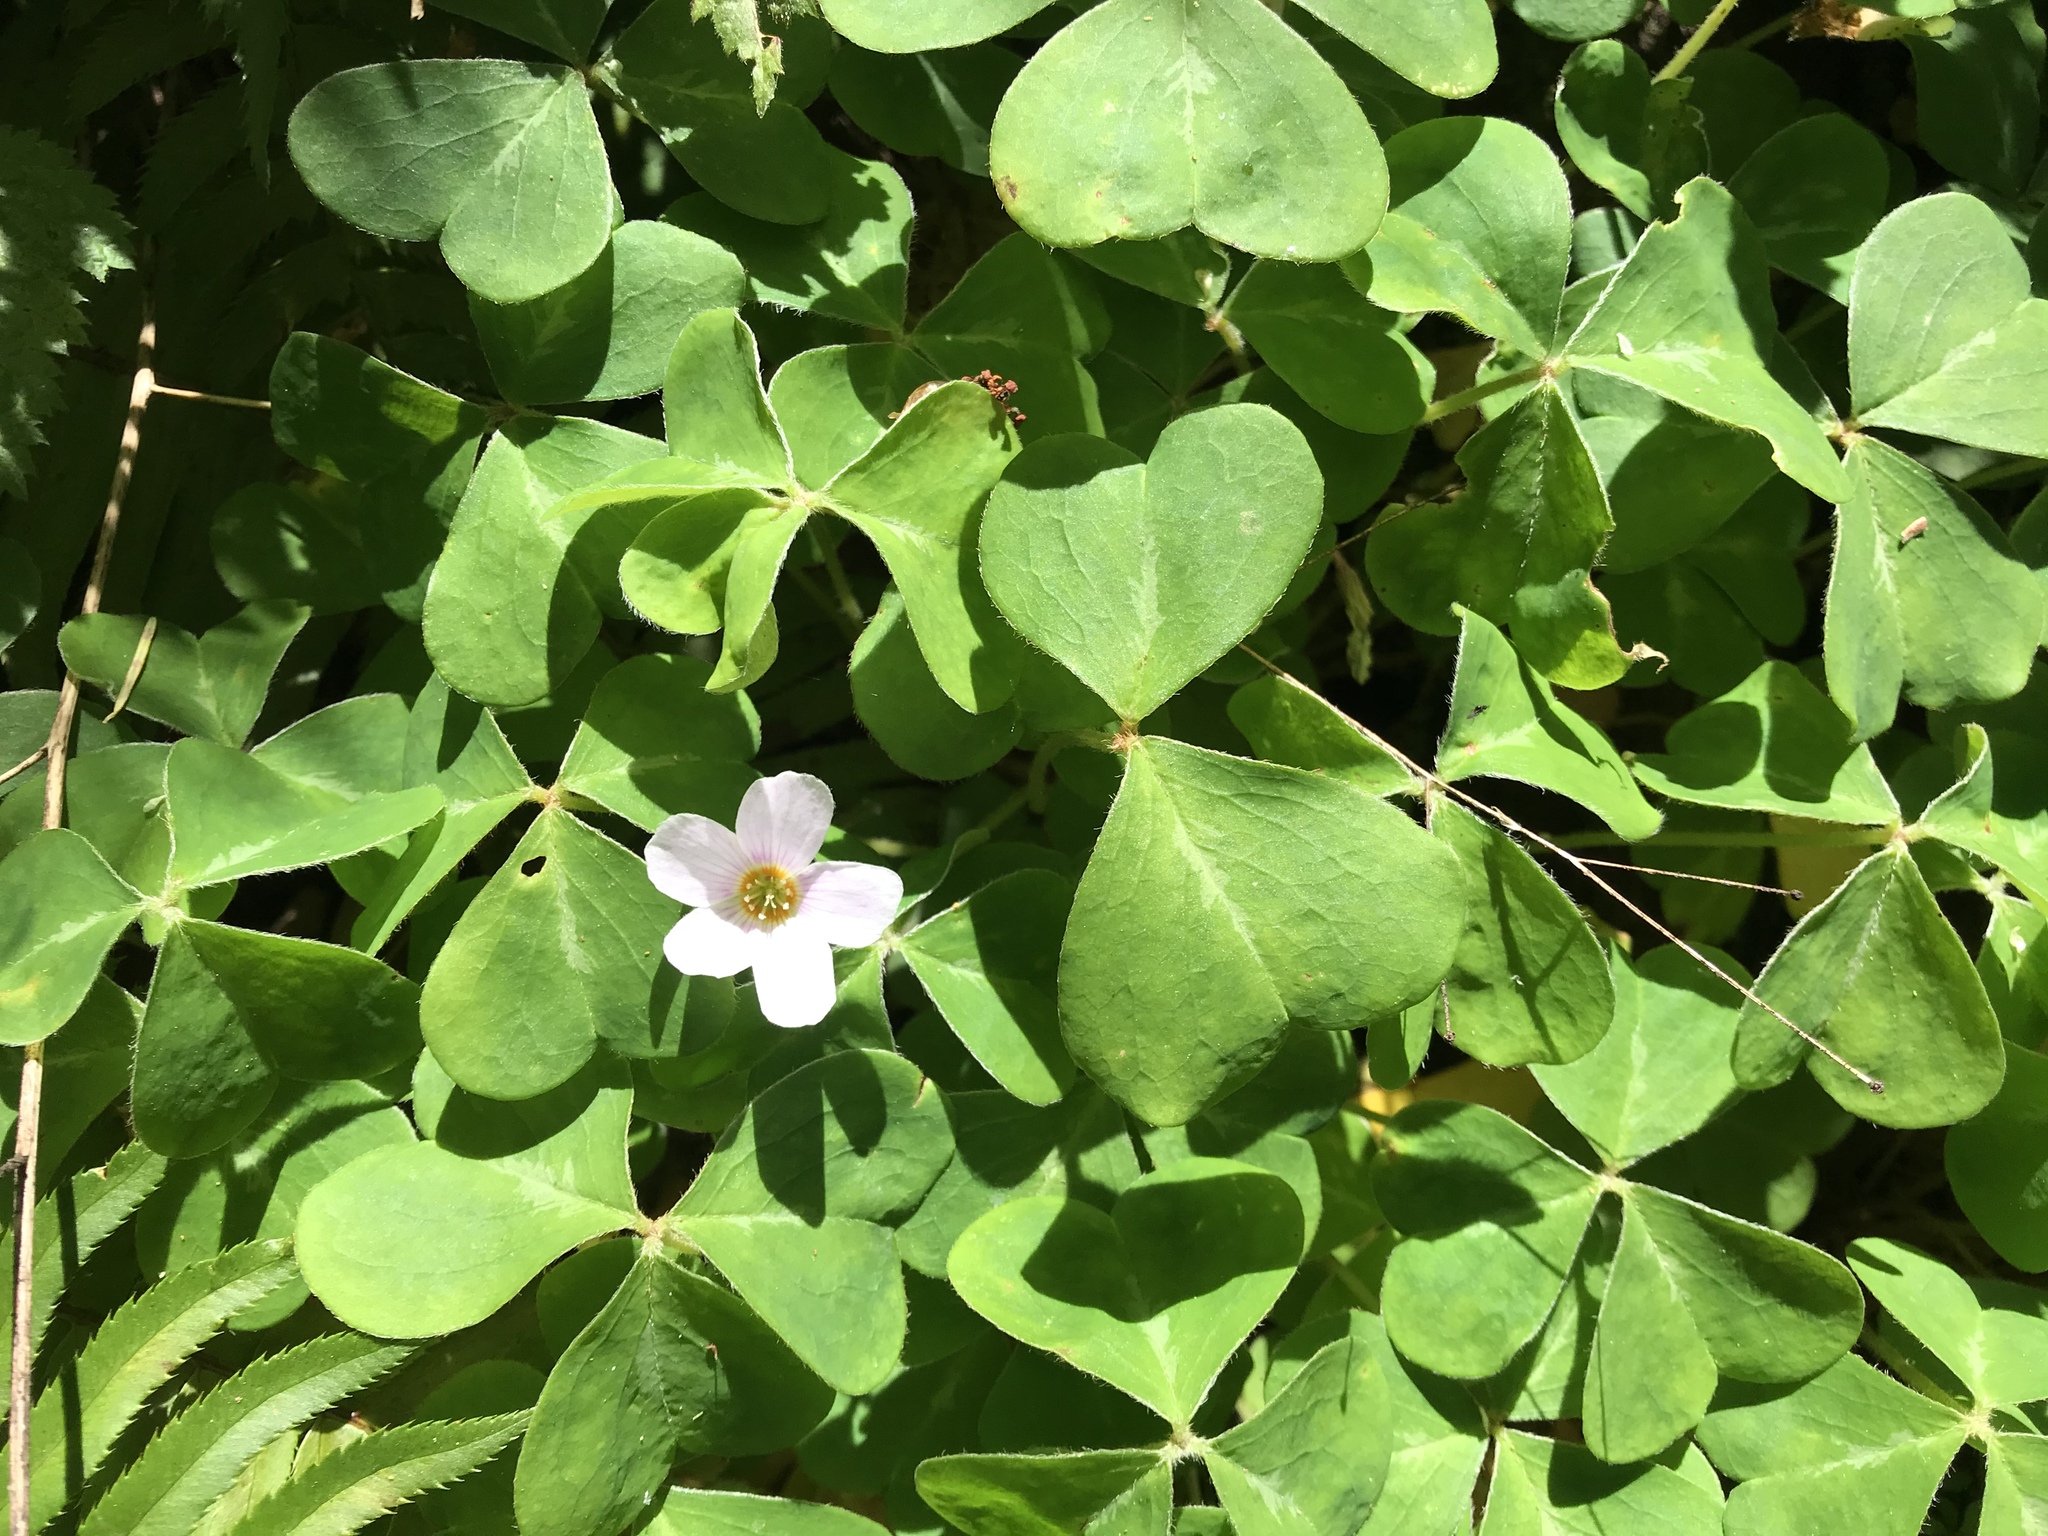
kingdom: Plantae
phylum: Tracheophyta
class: Magnoliopsida
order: Oxalidales
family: Oxalidaceae
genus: Oxalis
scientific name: Oxalis oregana
